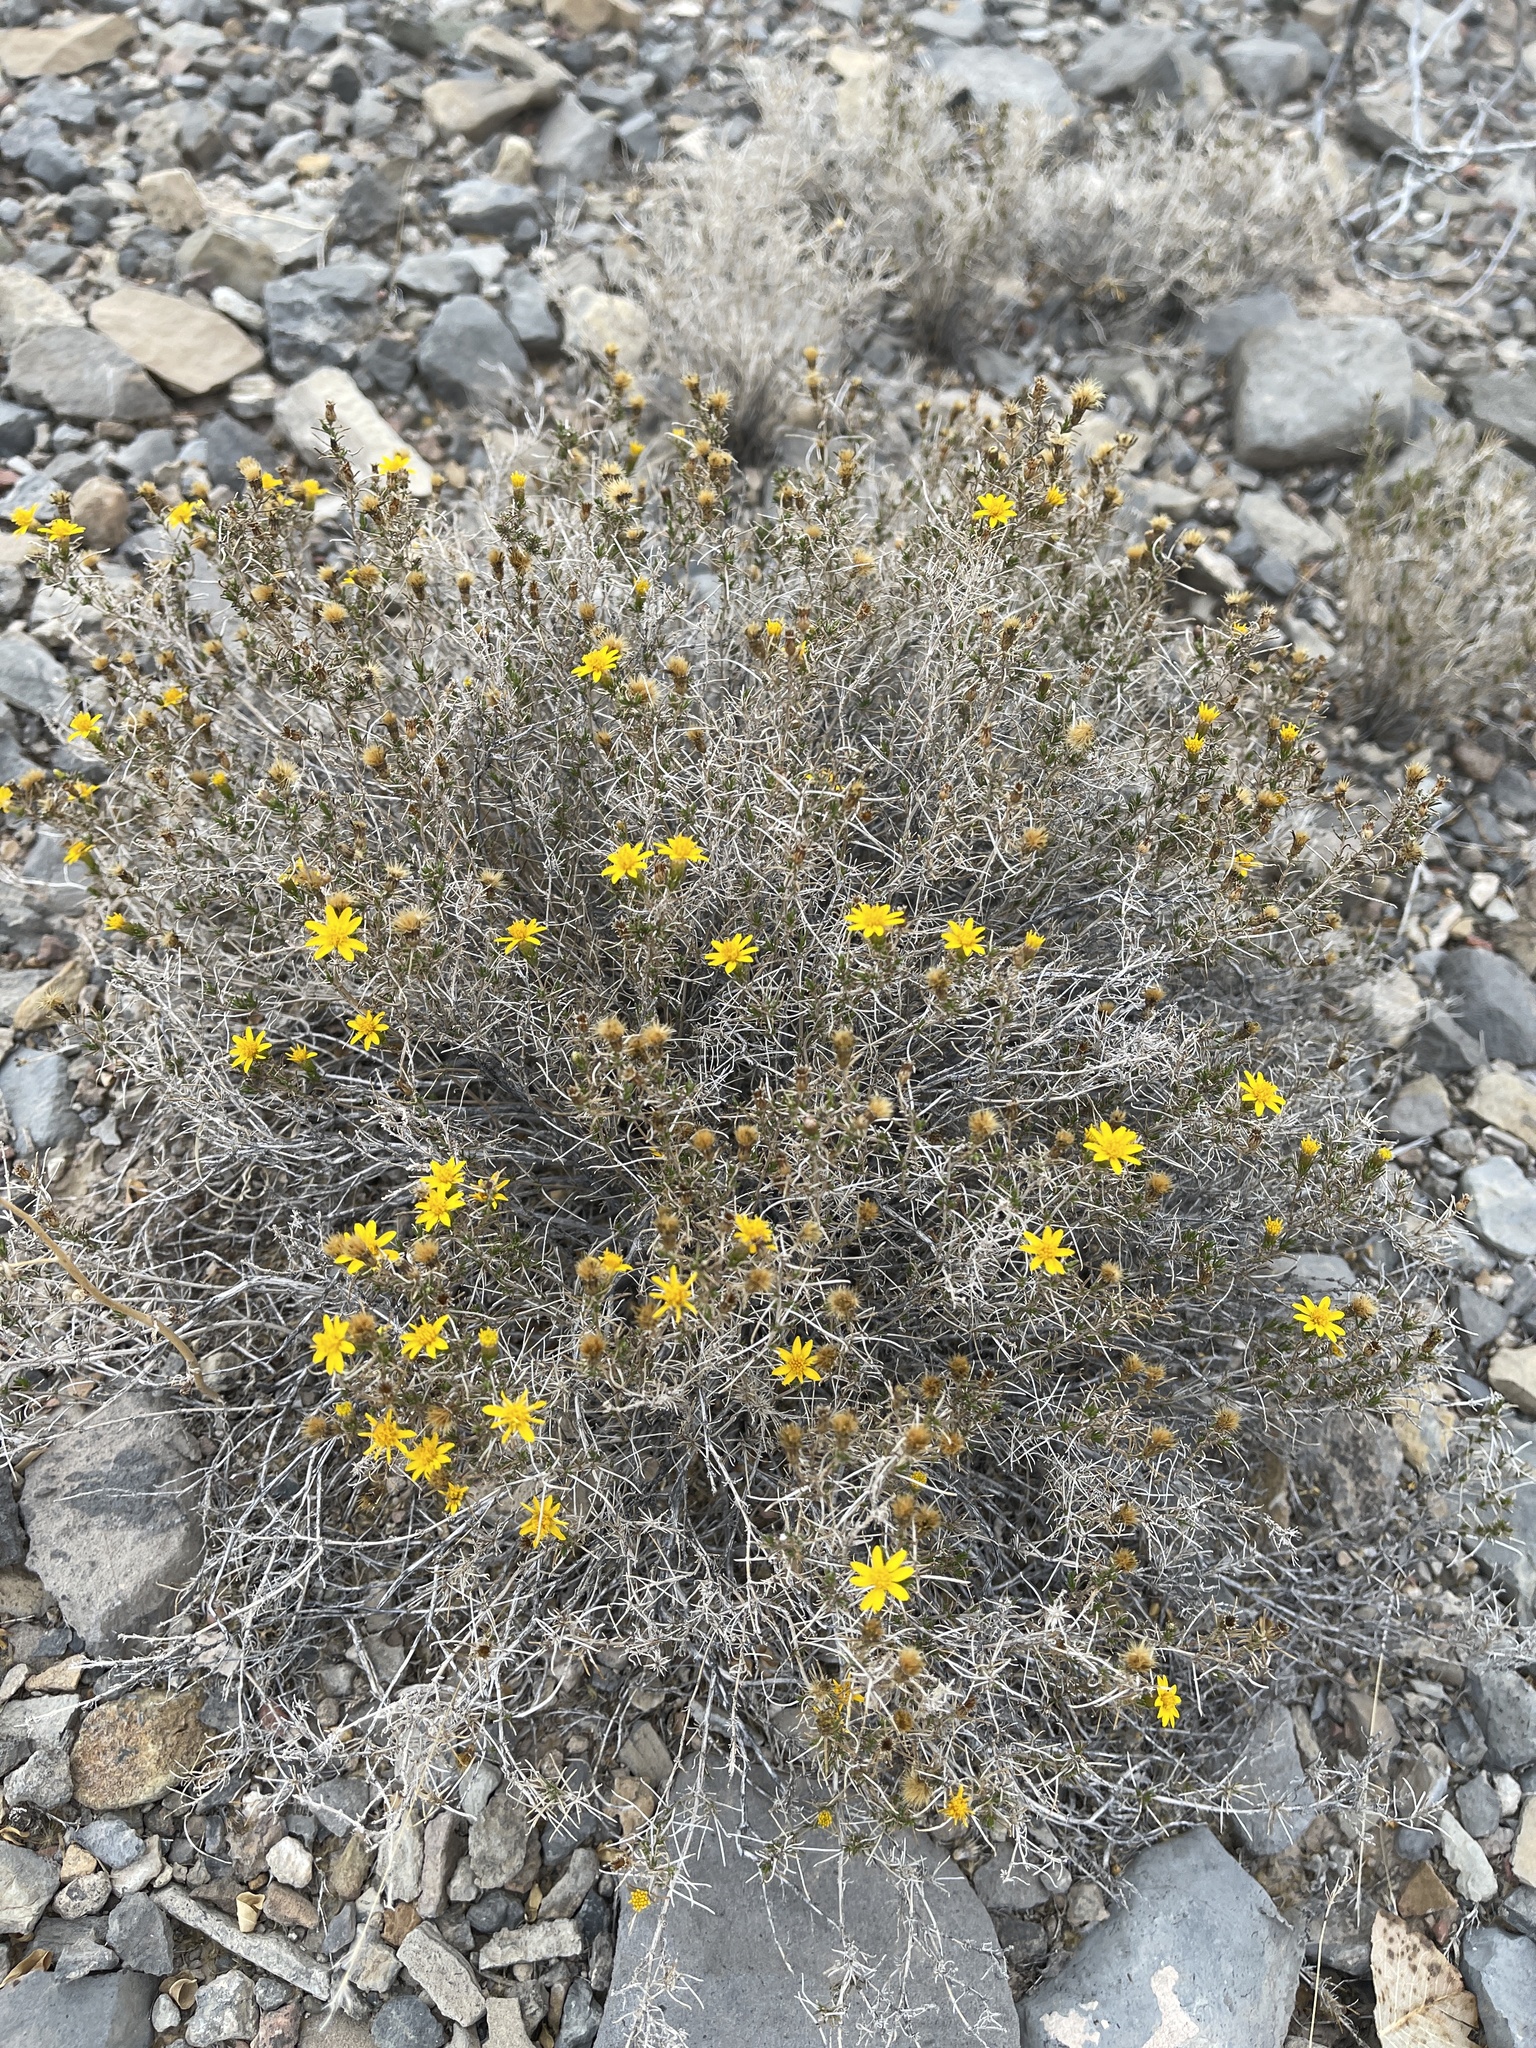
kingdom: Plantae
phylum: Tracheophyta
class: Magnoliopsida
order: Asterales
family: Asteraceae
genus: Thymophylla
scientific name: Thymophylla acerosa
